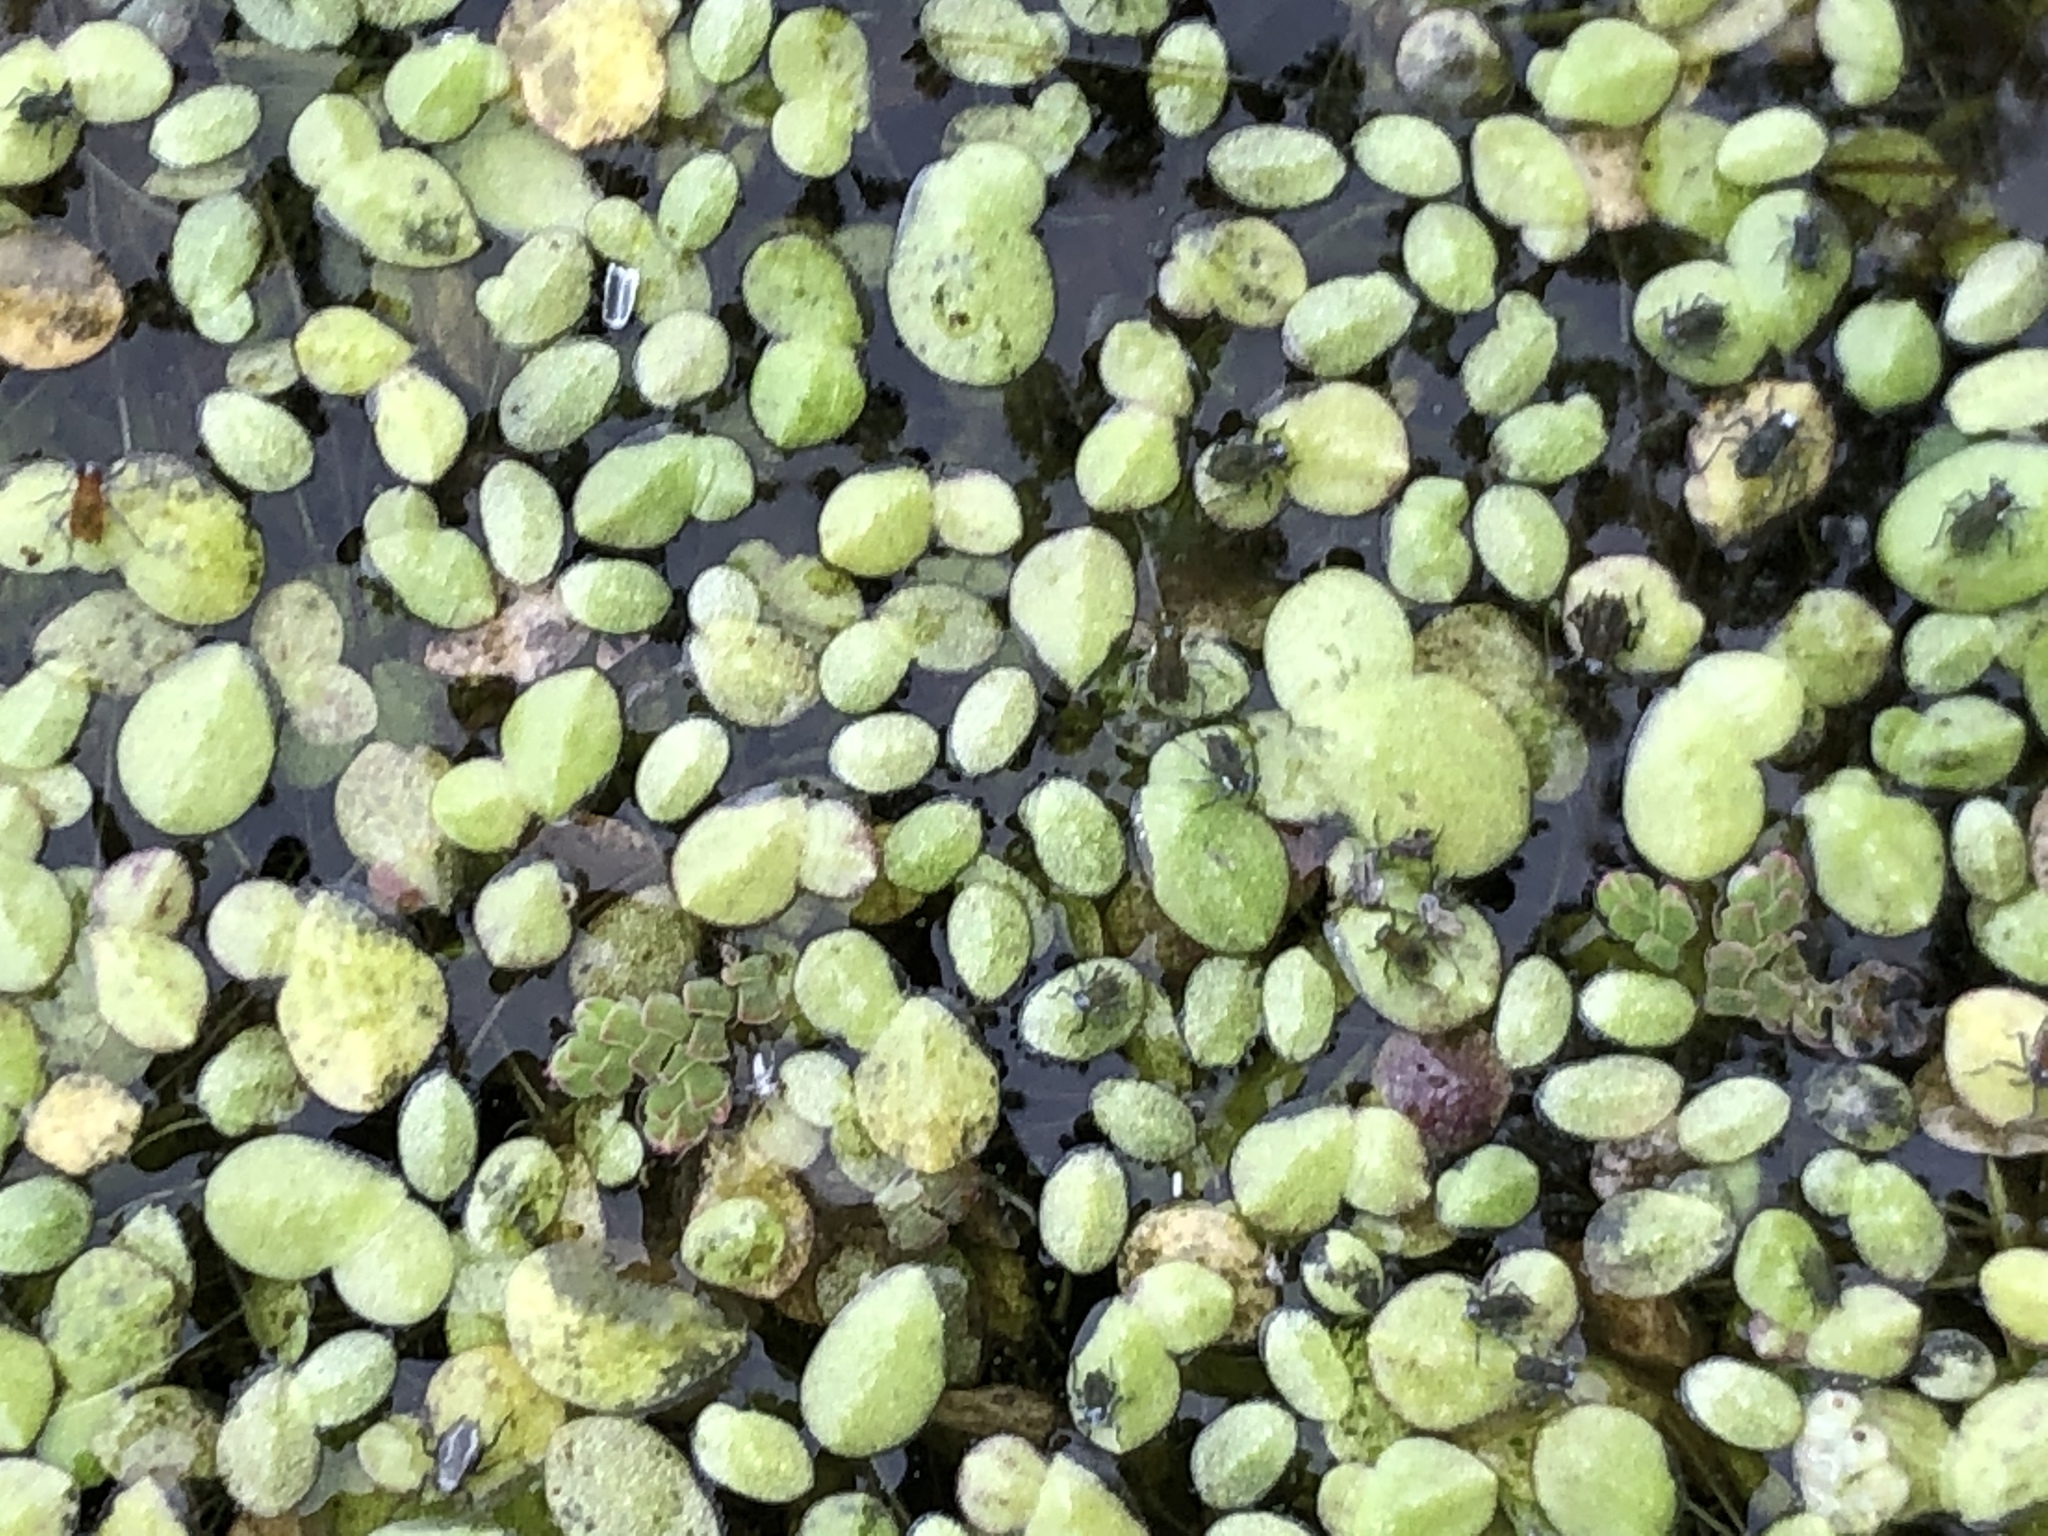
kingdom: Plantae
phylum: Tracheophyta
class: Liliopsida
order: Alismatales
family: Araceae
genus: Lemna
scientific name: Lemna minor
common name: Common duckweed
